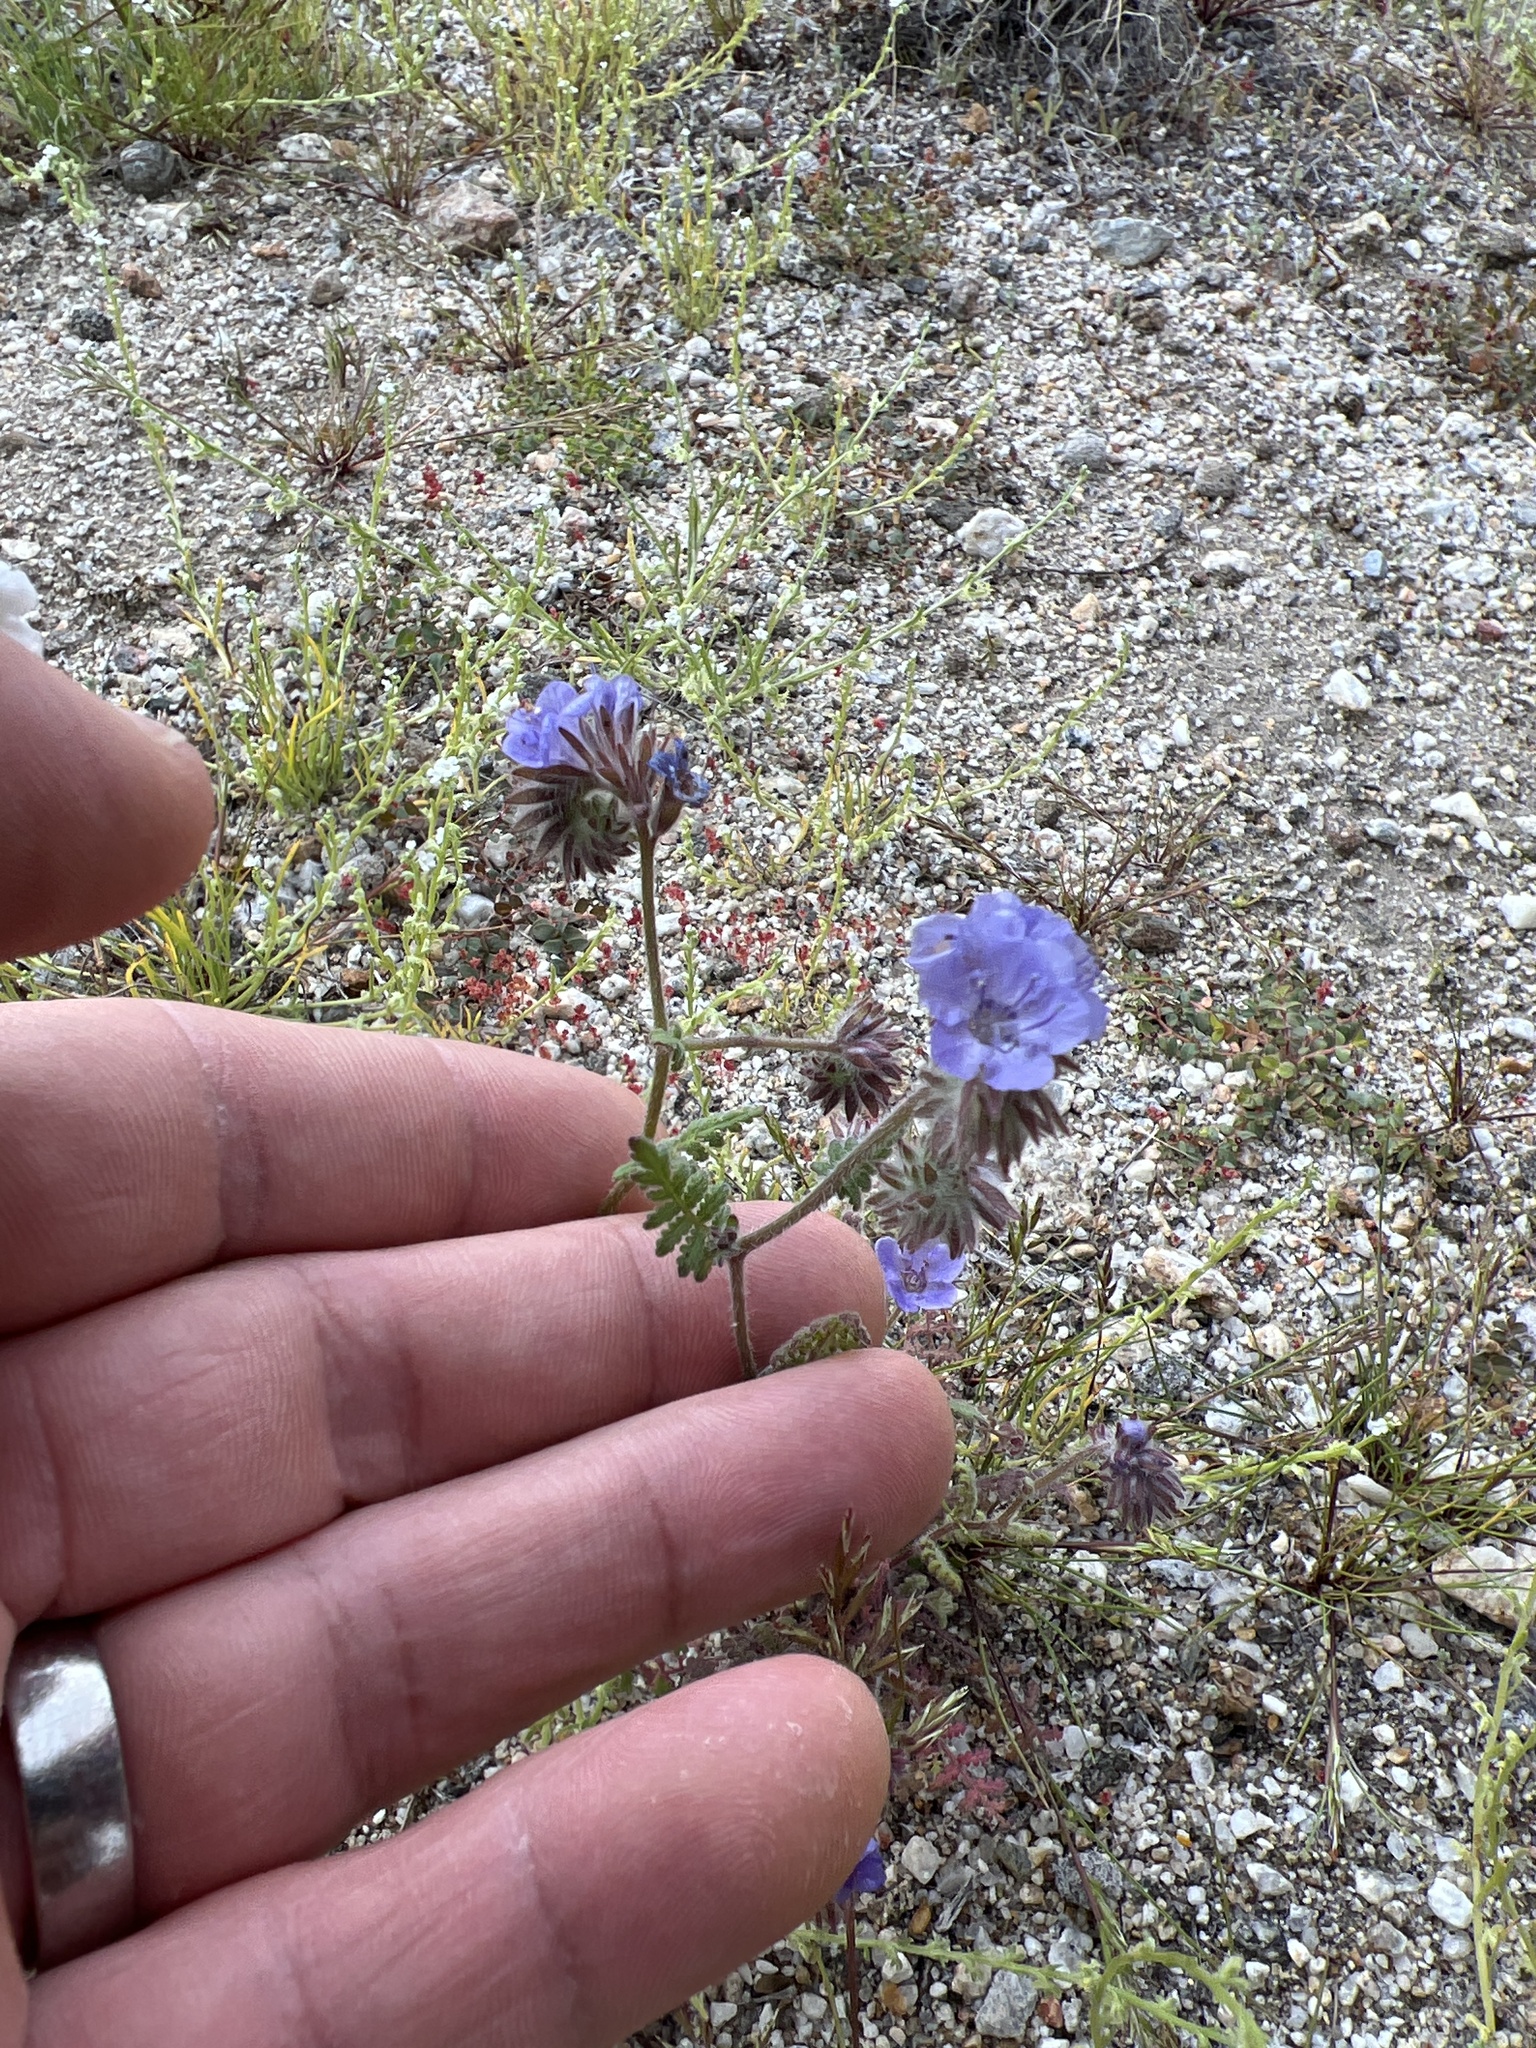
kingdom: Plantae
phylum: Tracheophyta
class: Magnoliopsida
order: Boraginales
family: Hydrophyllaceae
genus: Phacelia
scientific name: Phacelia distans
